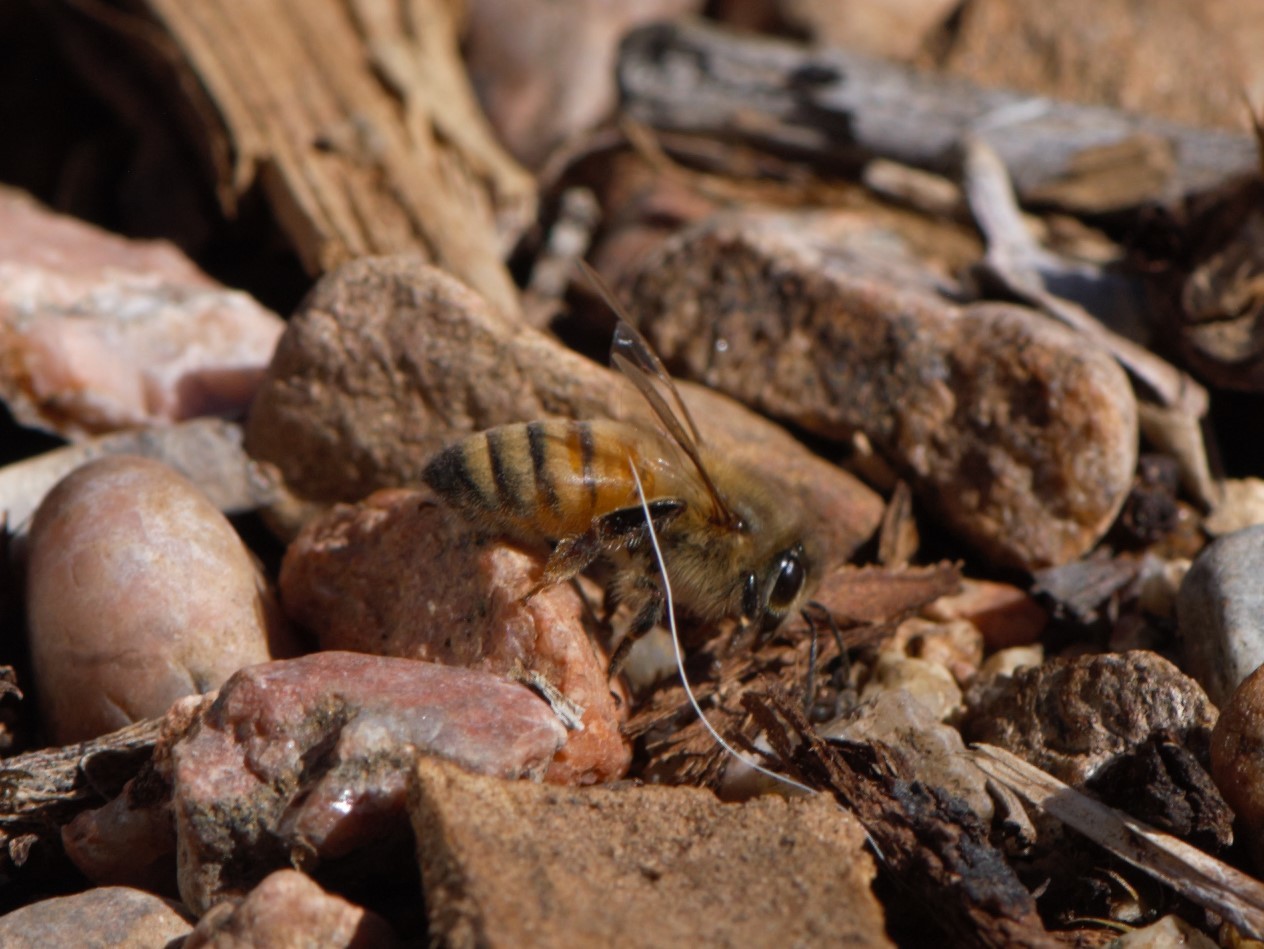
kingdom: Animalia
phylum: Arthropoda
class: Insecta
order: Hymenoptera
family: Apidae
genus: Apis
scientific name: Apis mellifera
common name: Honey bee
